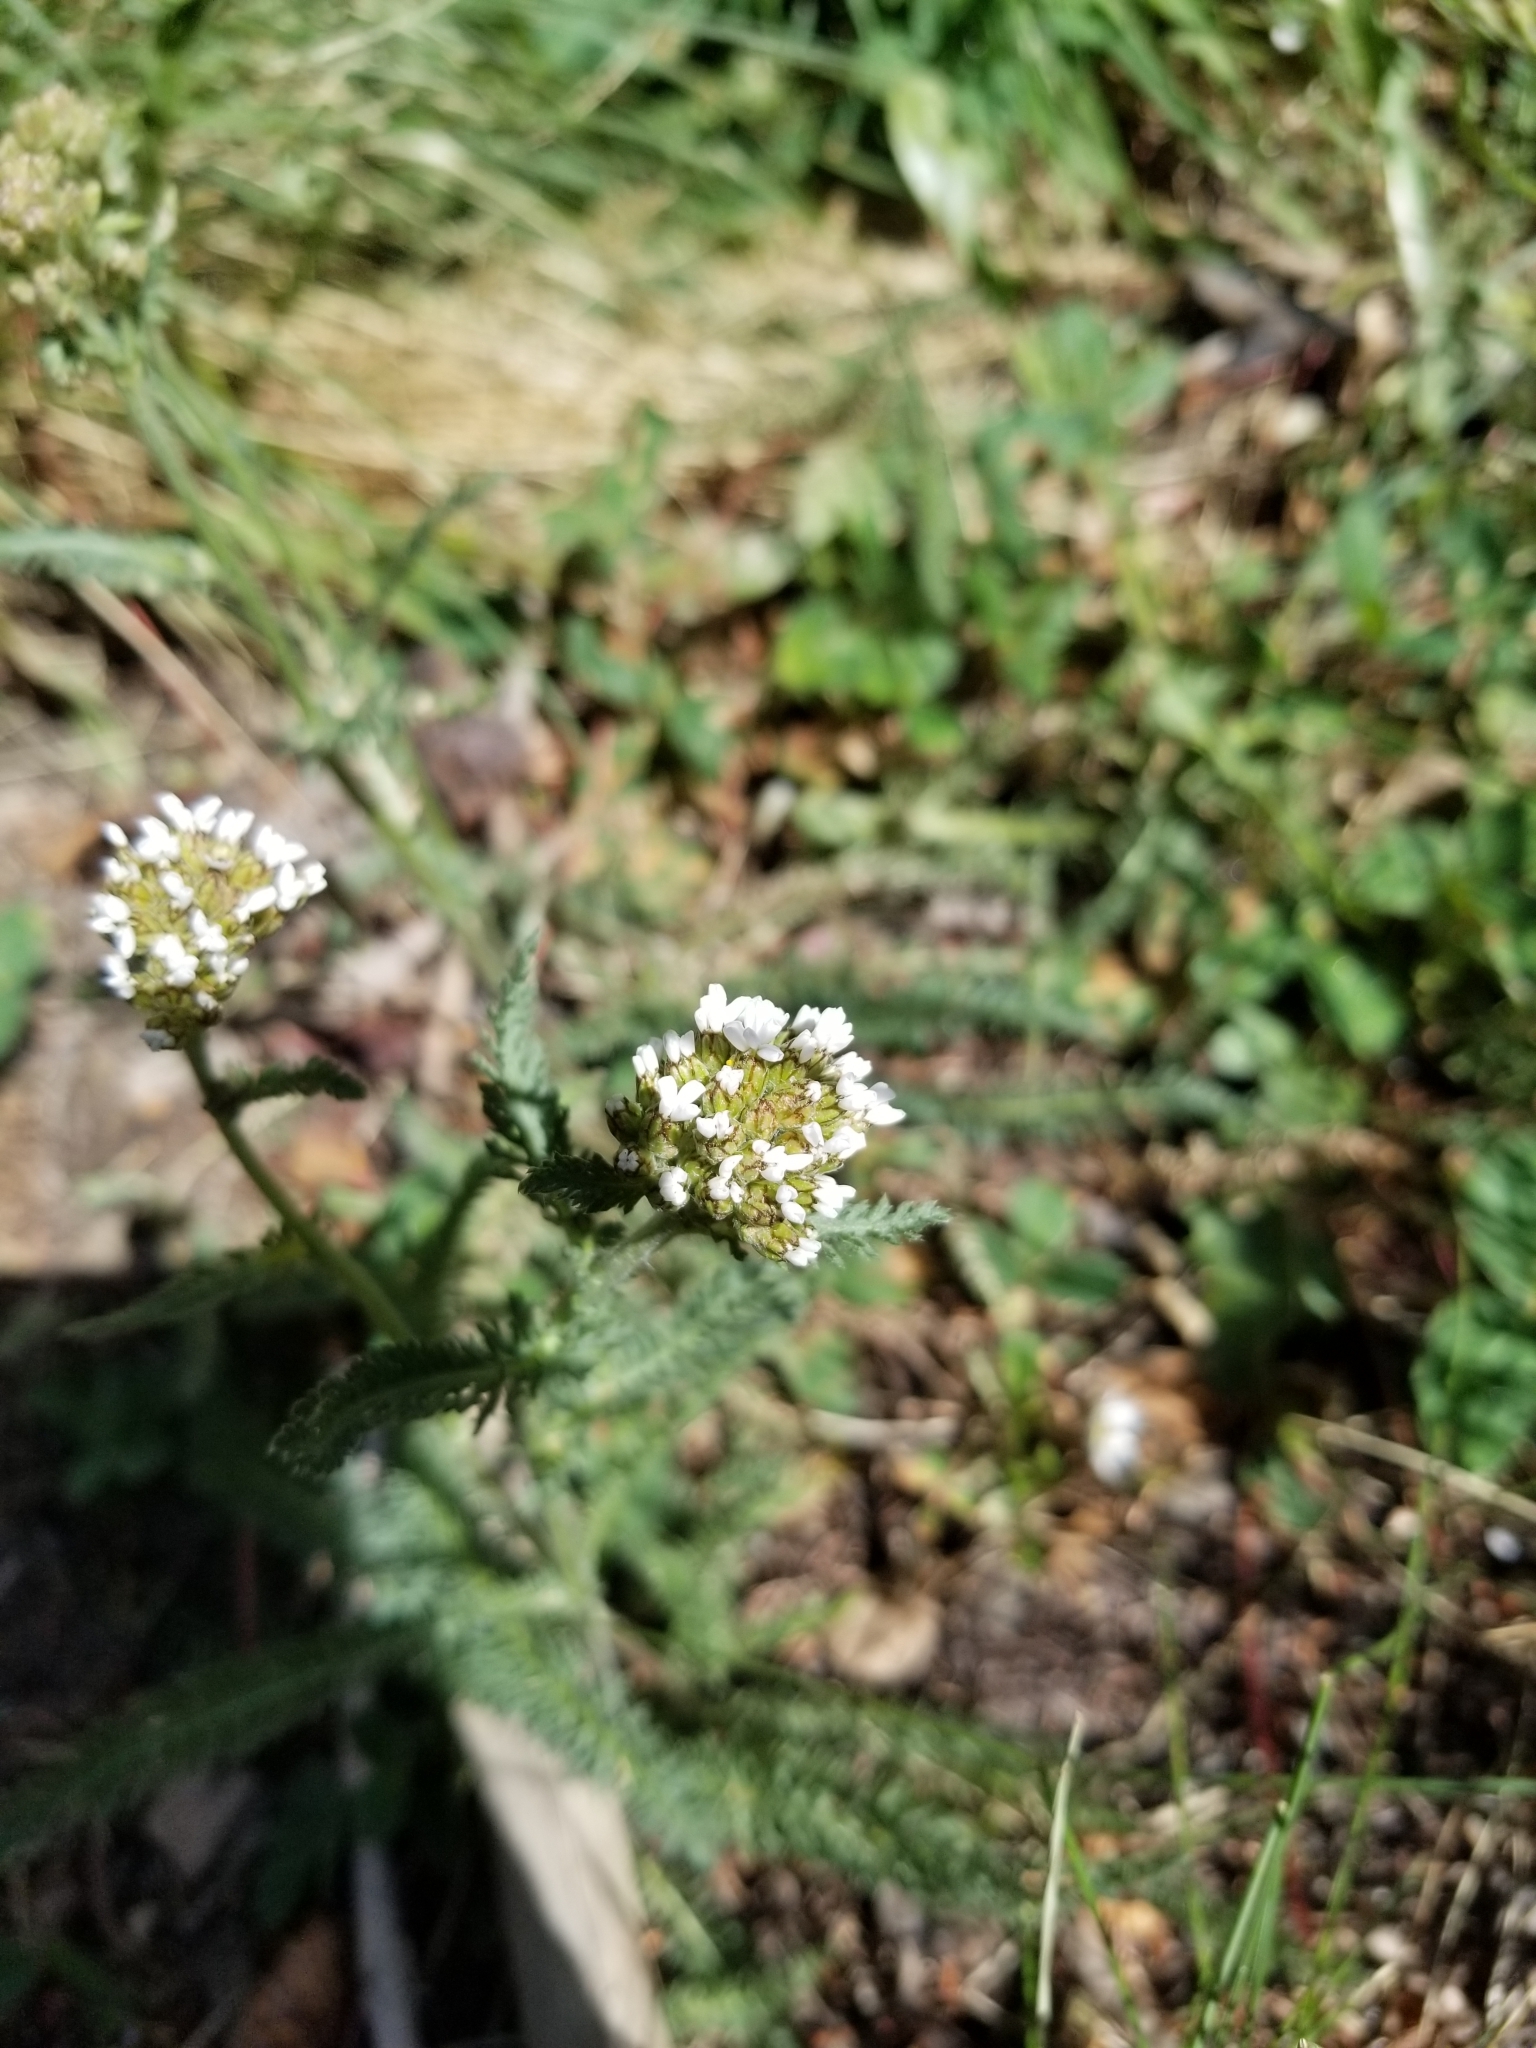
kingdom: Plantae
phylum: Tracheophyta
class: Magnoliopsida
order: Asterales
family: Asteraceae
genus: Achillea
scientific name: Achillea millefolium
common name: Yarrow
